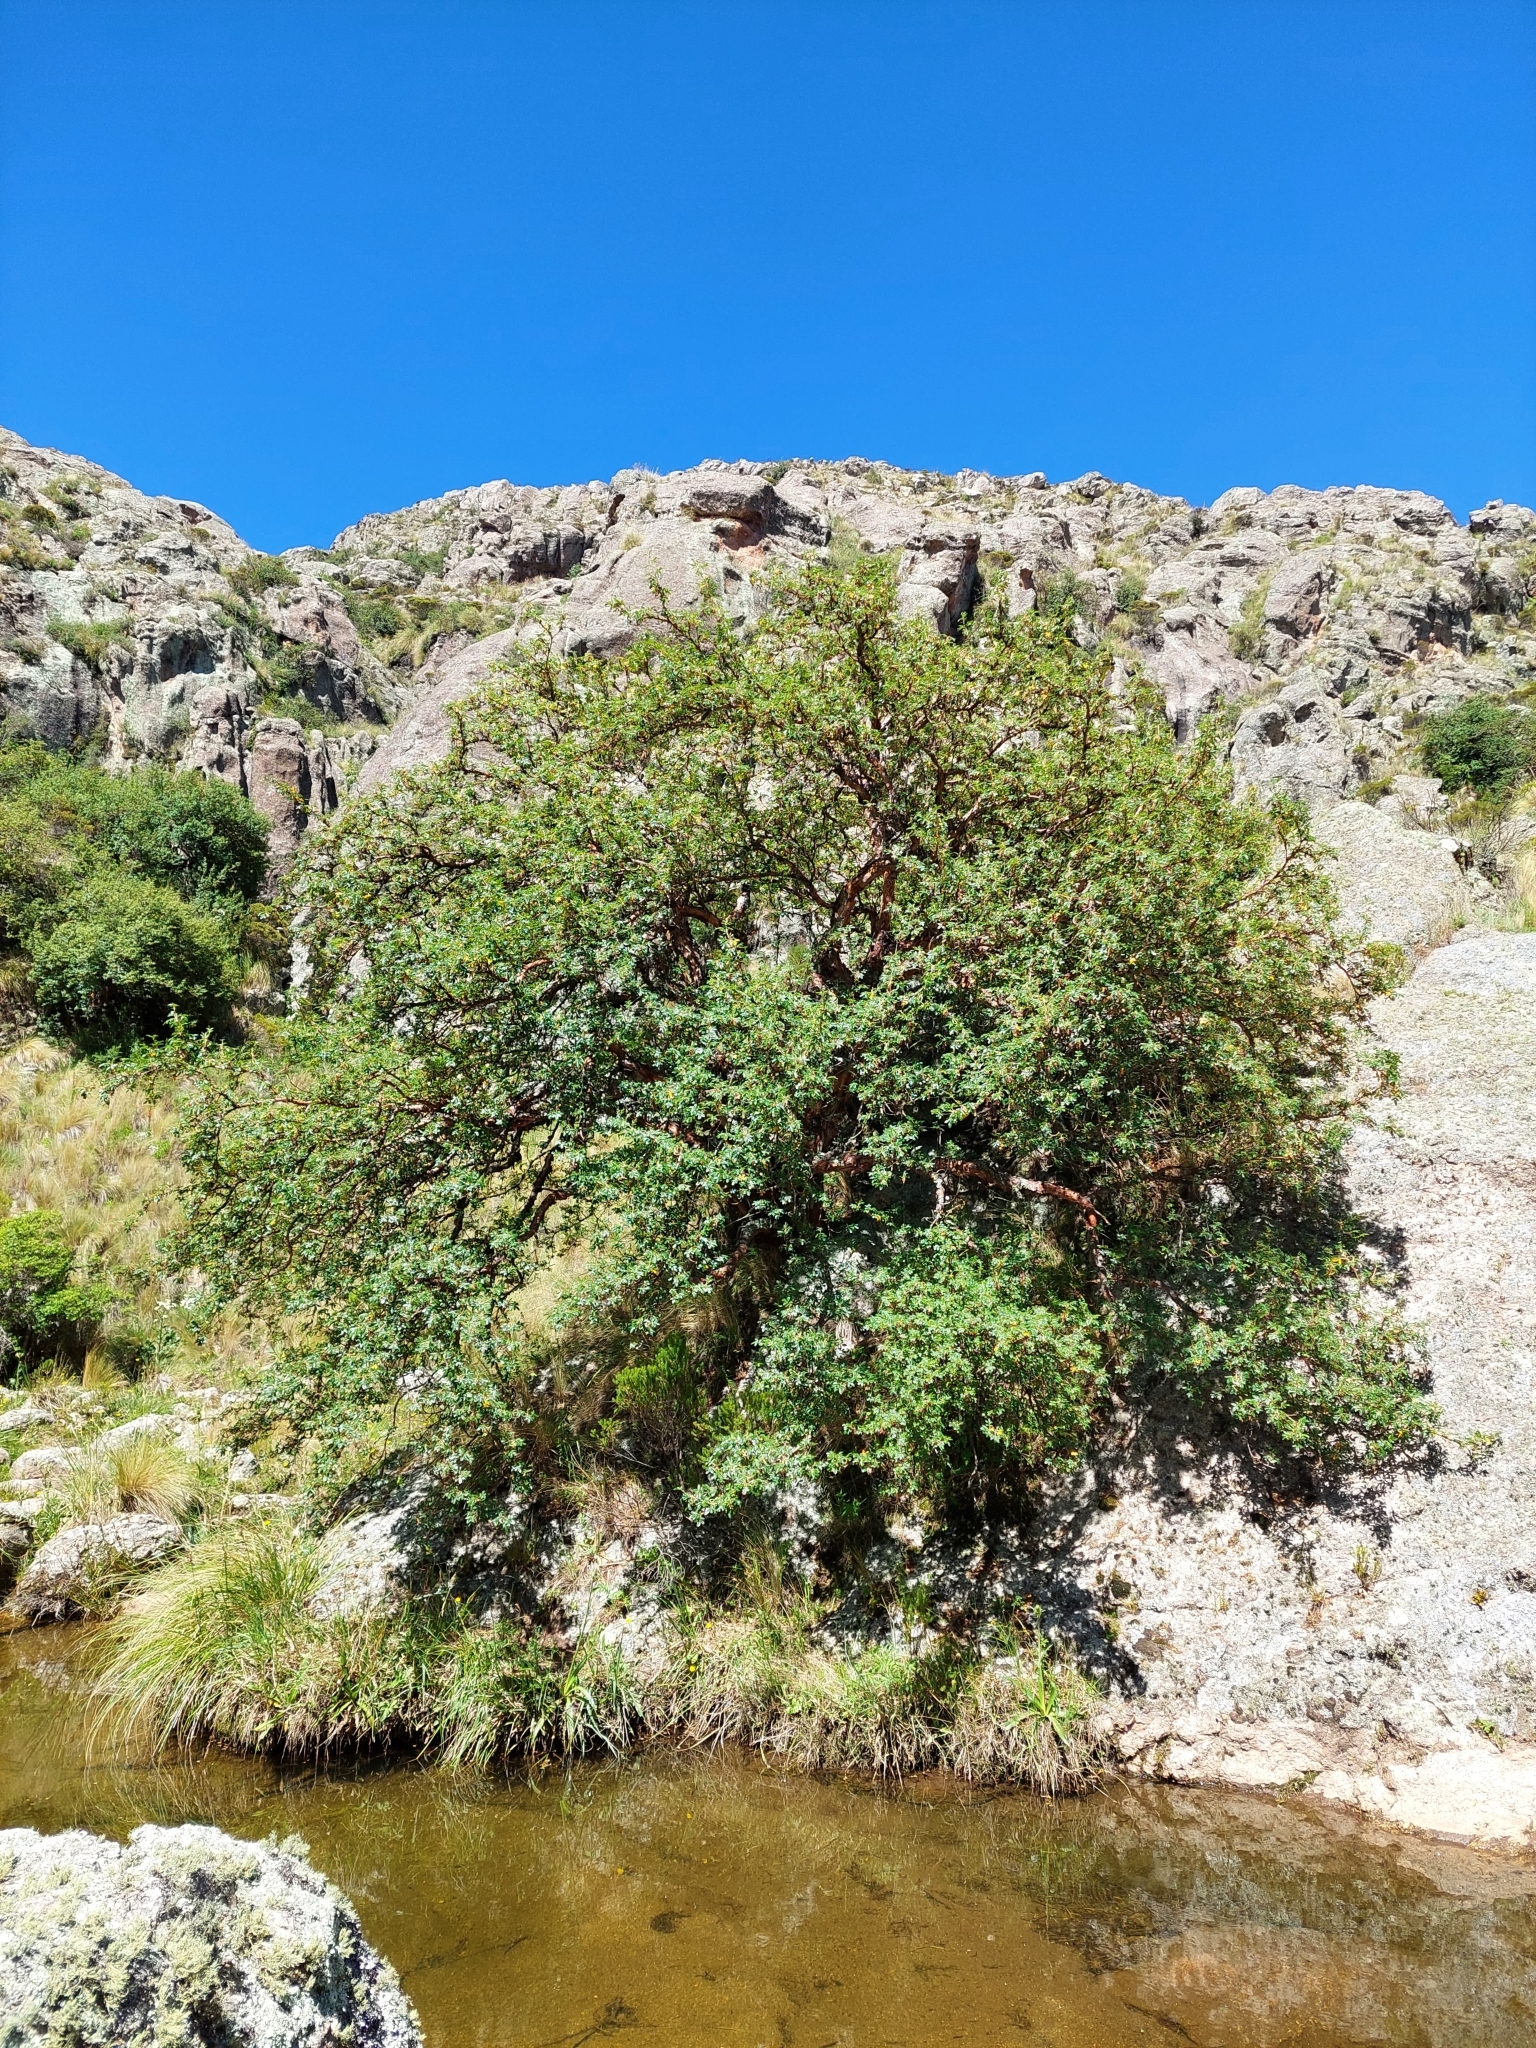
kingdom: Plantae
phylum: Tracheophyta
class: Magnoliopsida
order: Rosales
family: Rosaceae
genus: Polylepis
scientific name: Polylepis australis
